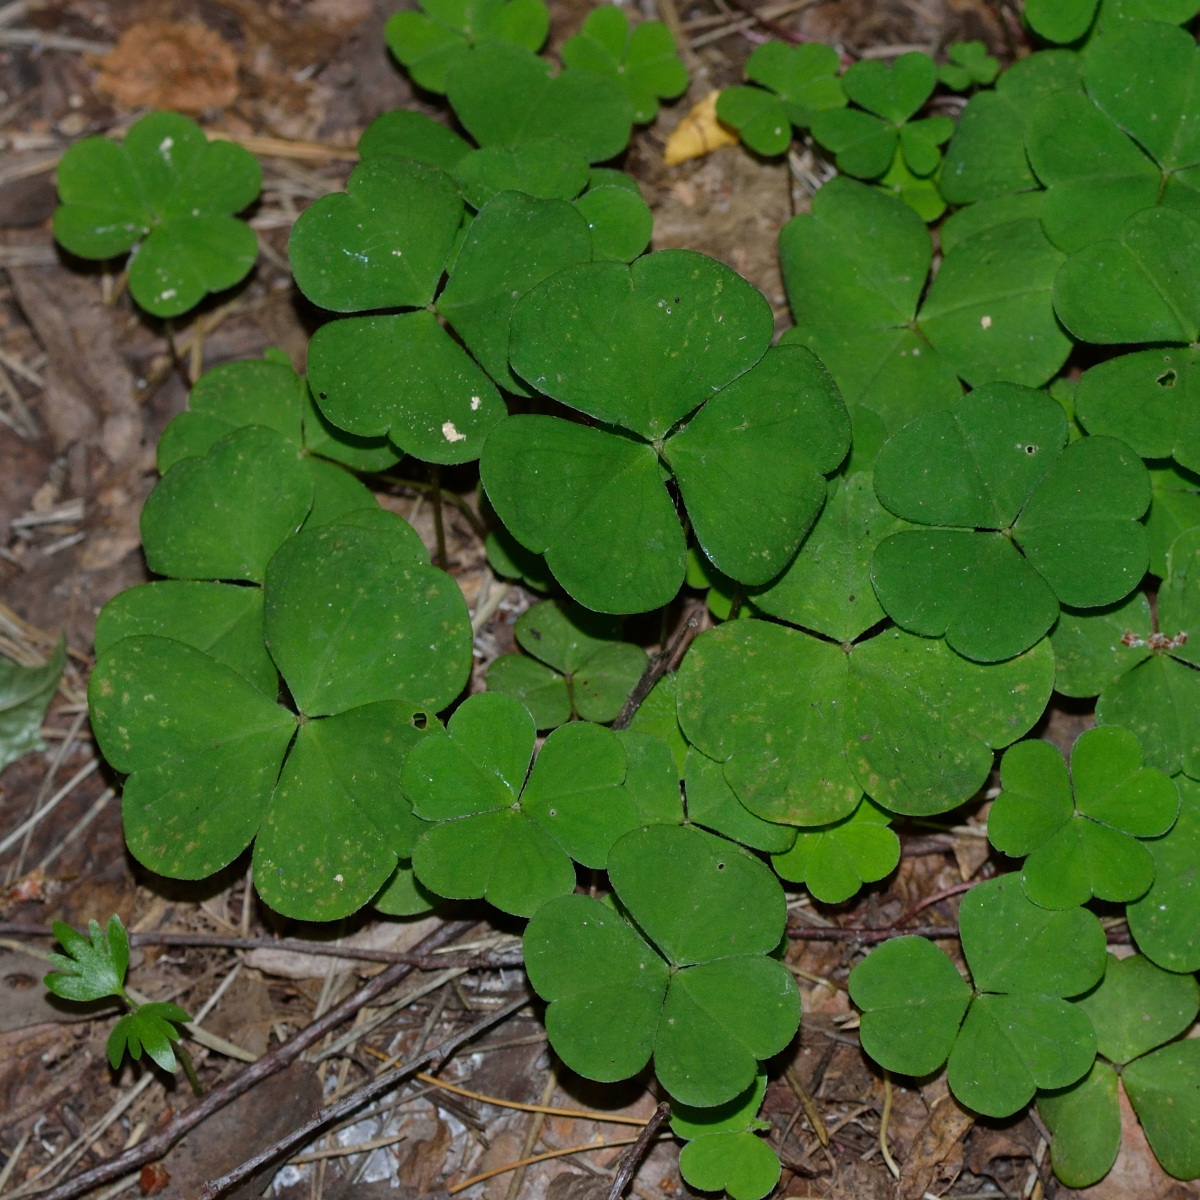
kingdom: Plantae
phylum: Tracheophyta
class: Magnoliopsida
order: Oxalidales
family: Oxalidaceae
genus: Oxalis
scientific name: Oxalis acetosella
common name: Wood-sorrel
